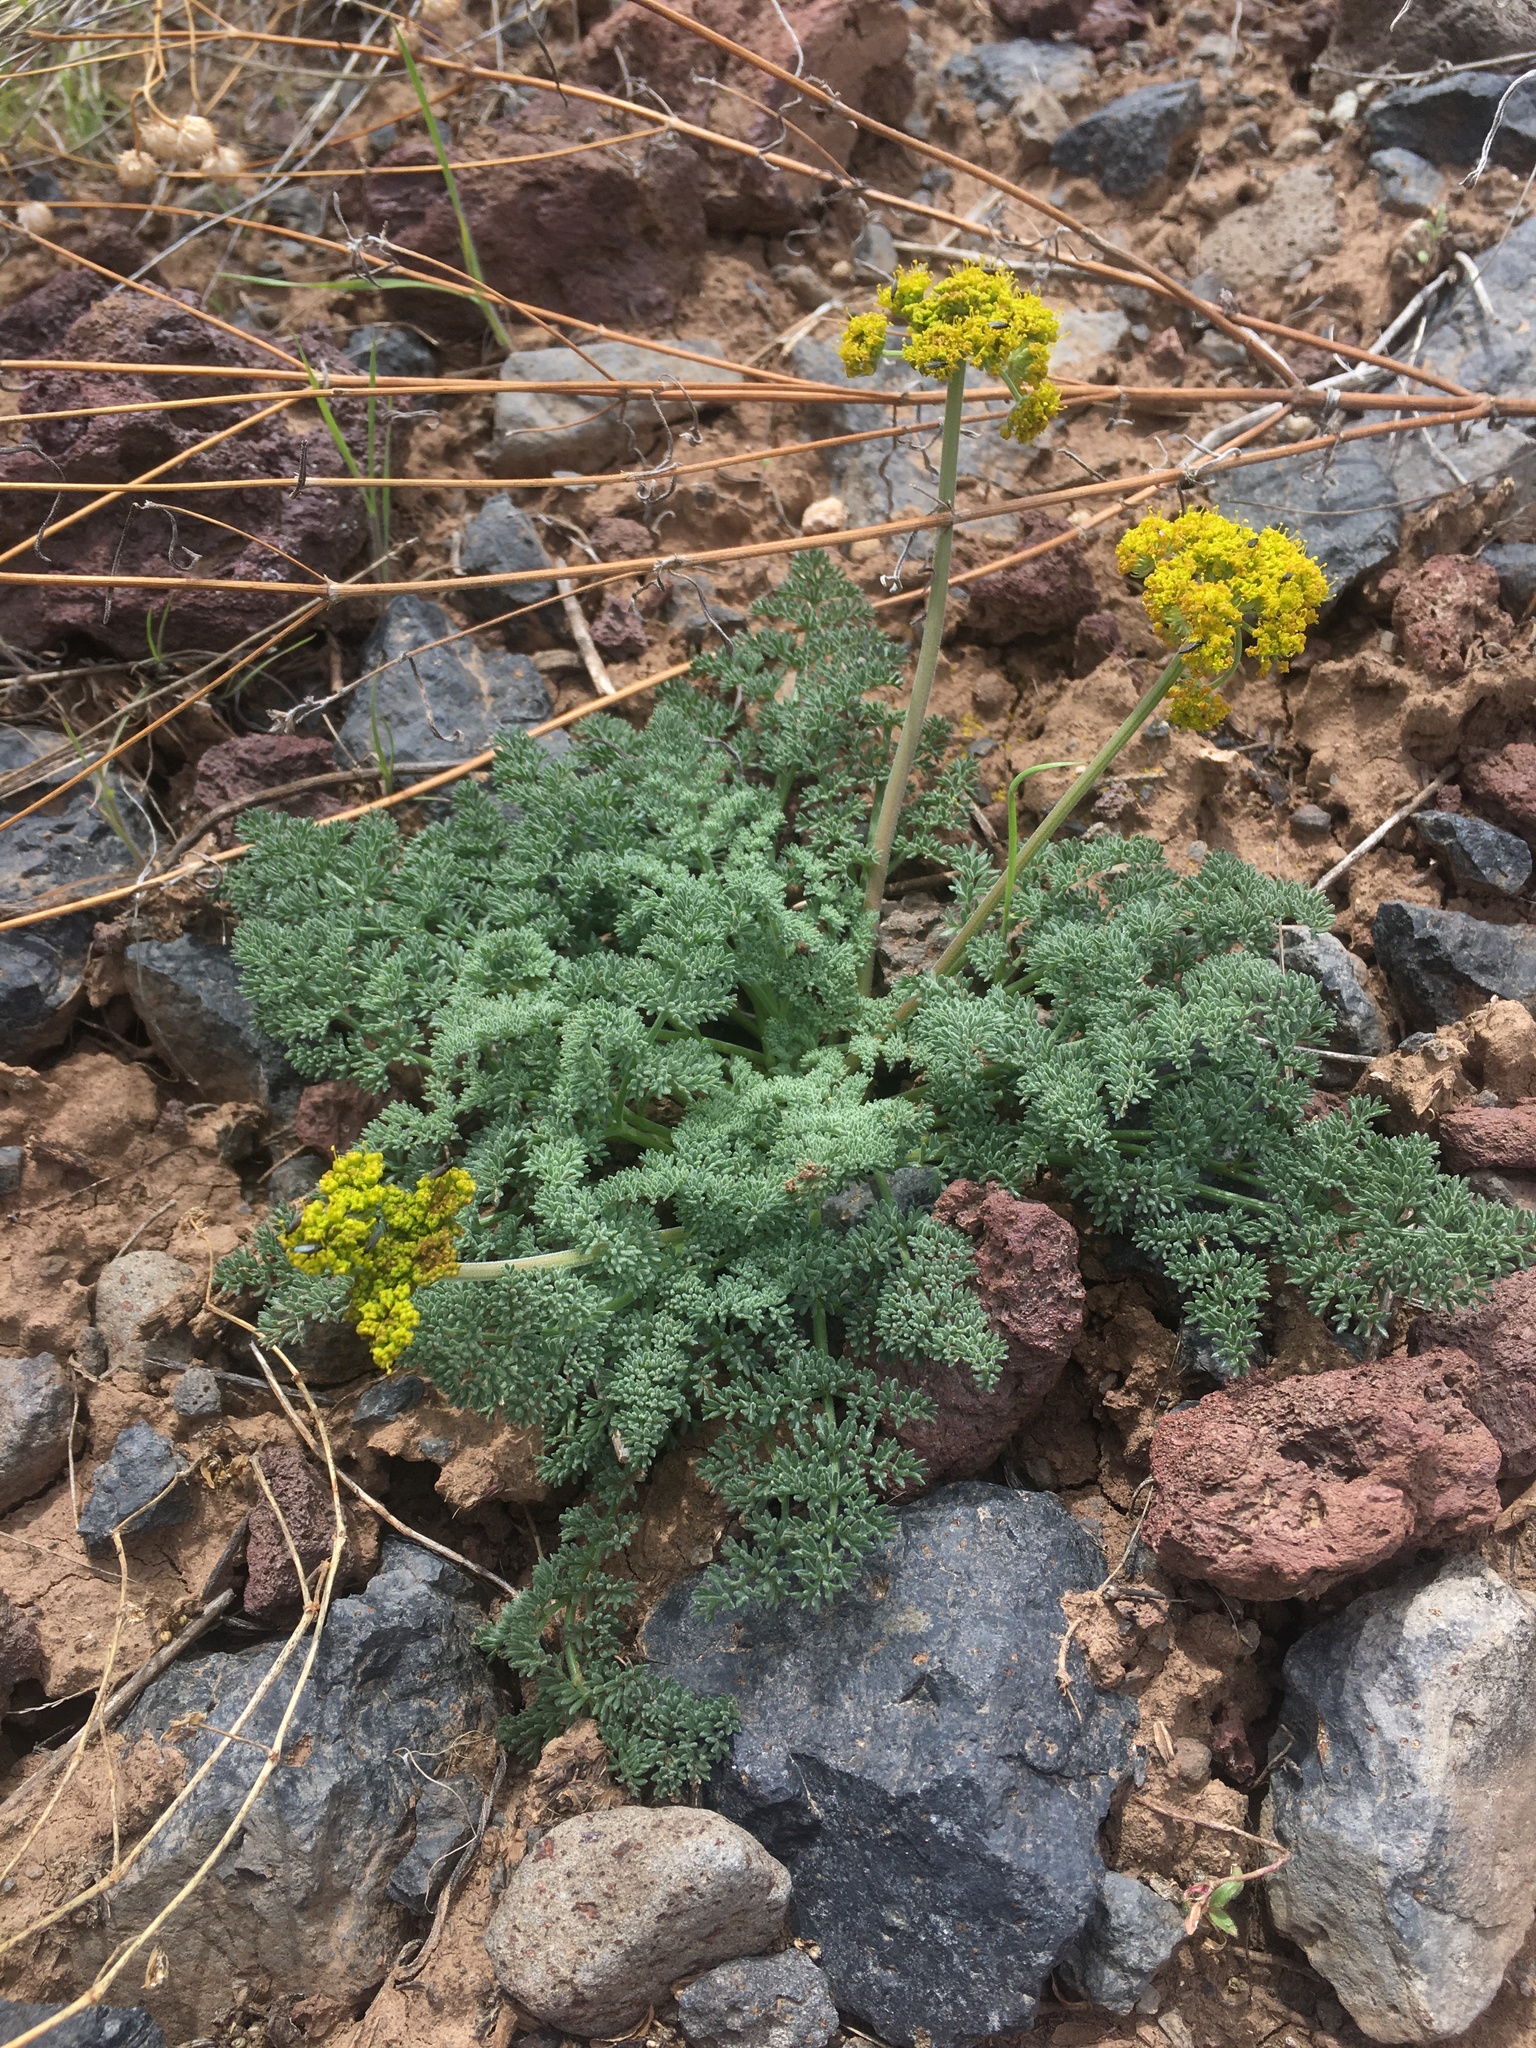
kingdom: Plantae
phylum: Tracheophyta
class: Magnoliopsida
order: Apiales
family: Apiaceae
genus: Lomatium
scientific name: Lomatium foeniculaceum
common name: Desert-parsley
